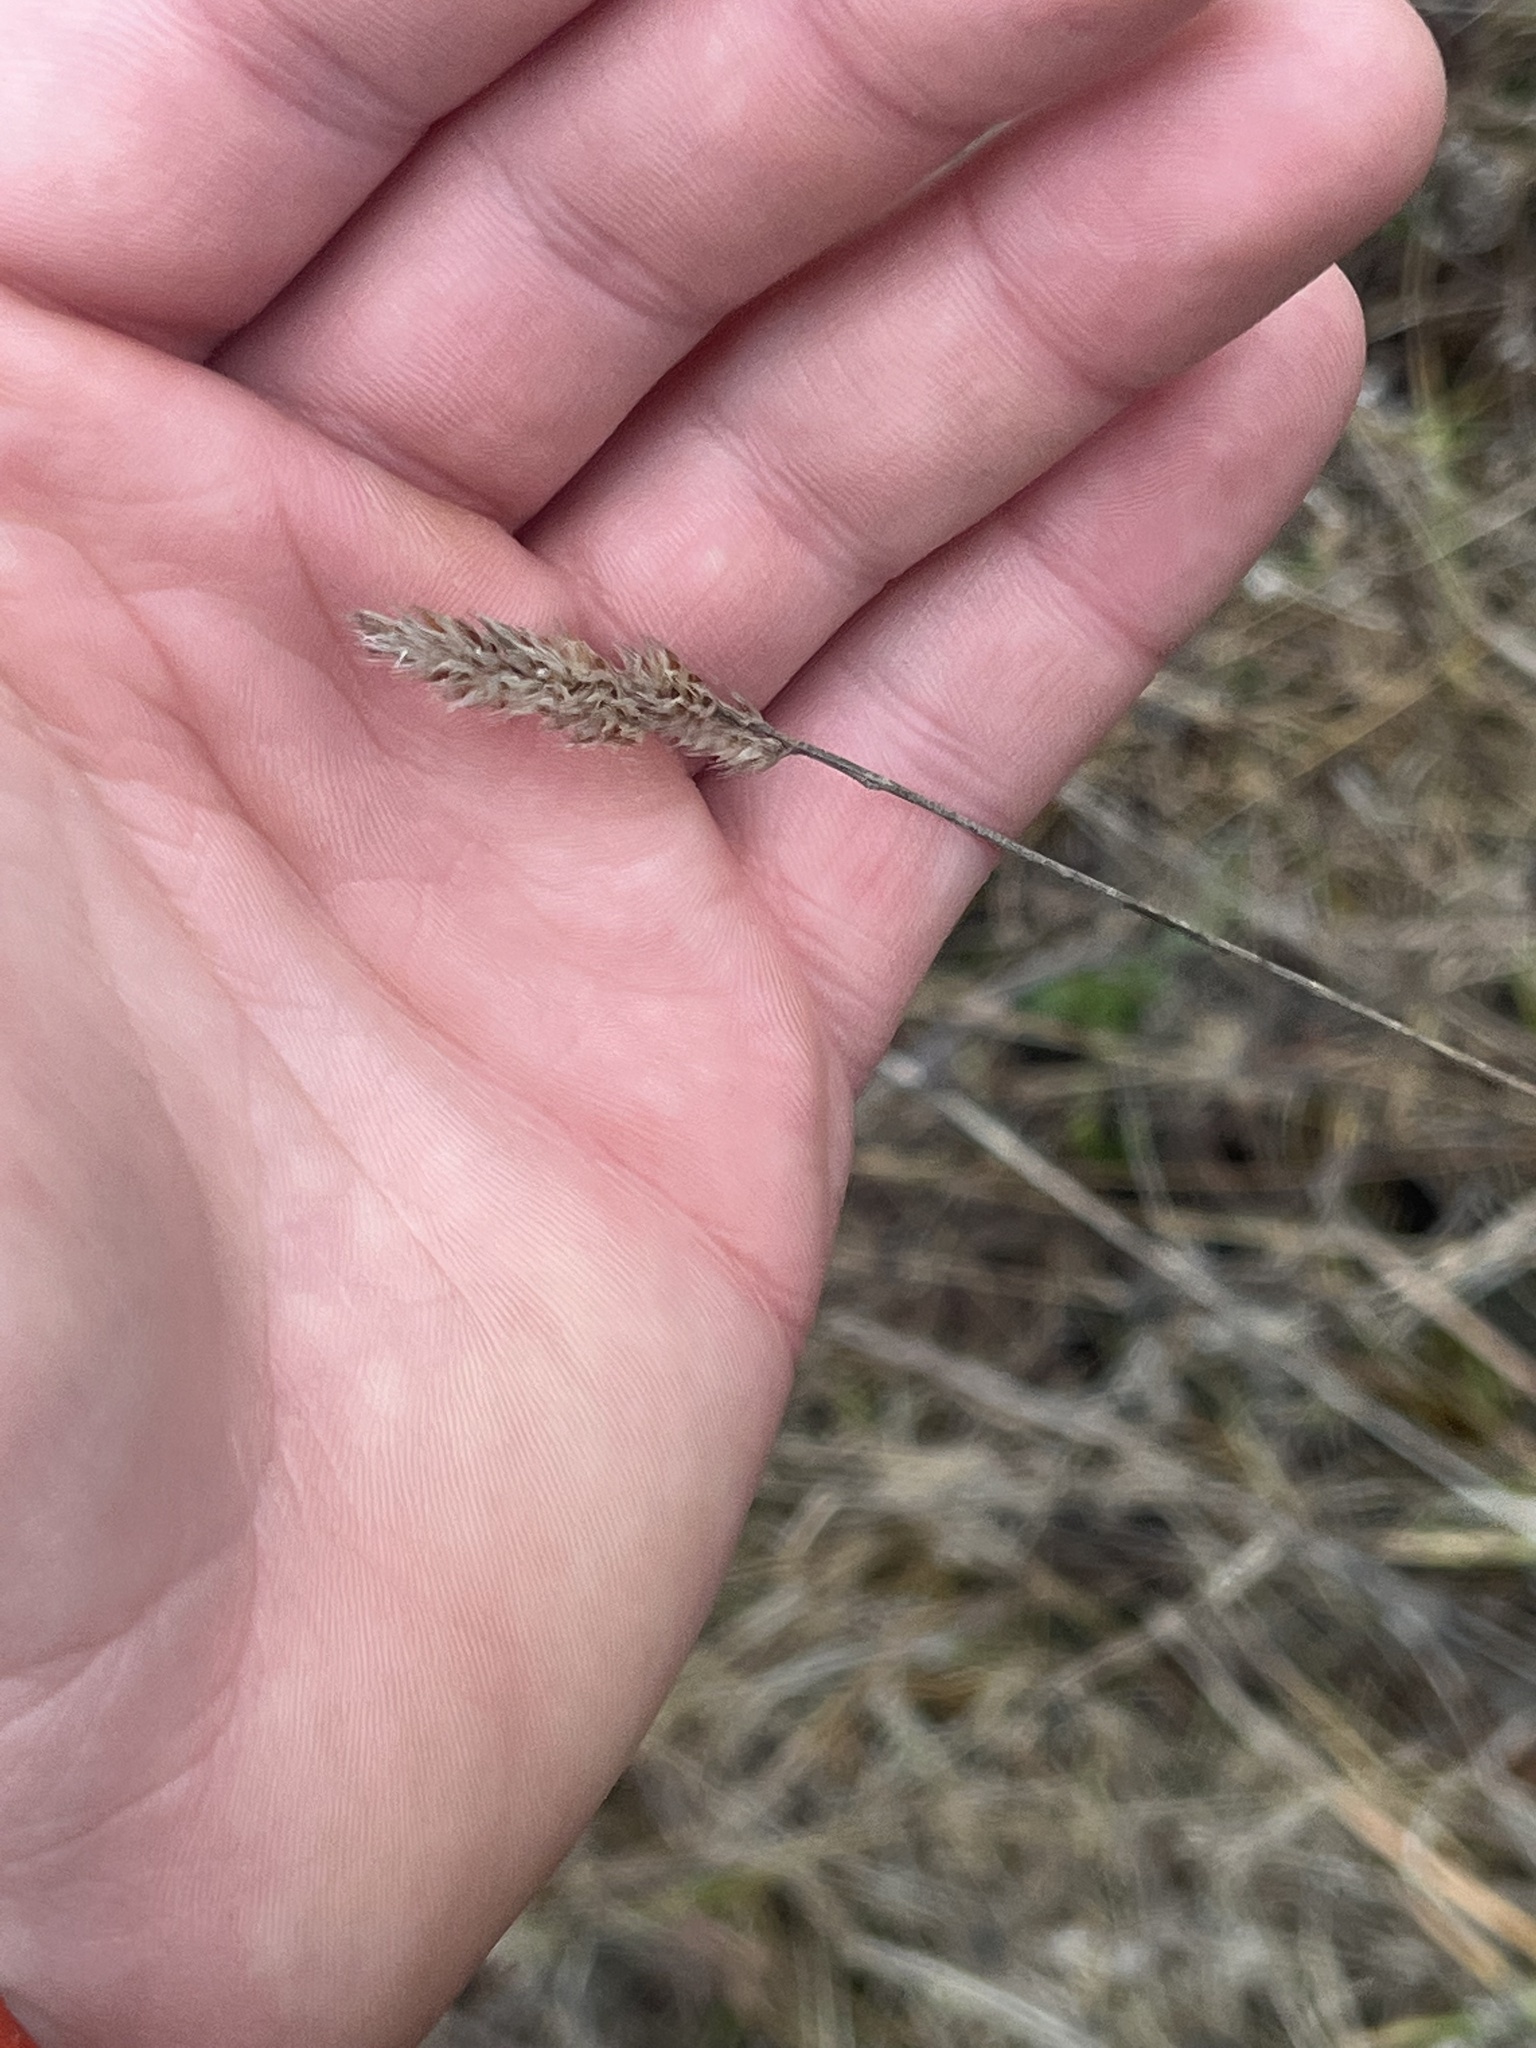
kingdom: Plantae
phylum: Tracheophyta
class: Liliopsida
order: Poales
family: Poaceae
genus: Dactylis
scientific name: Dactylis glomerata
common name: Orchardgrass
